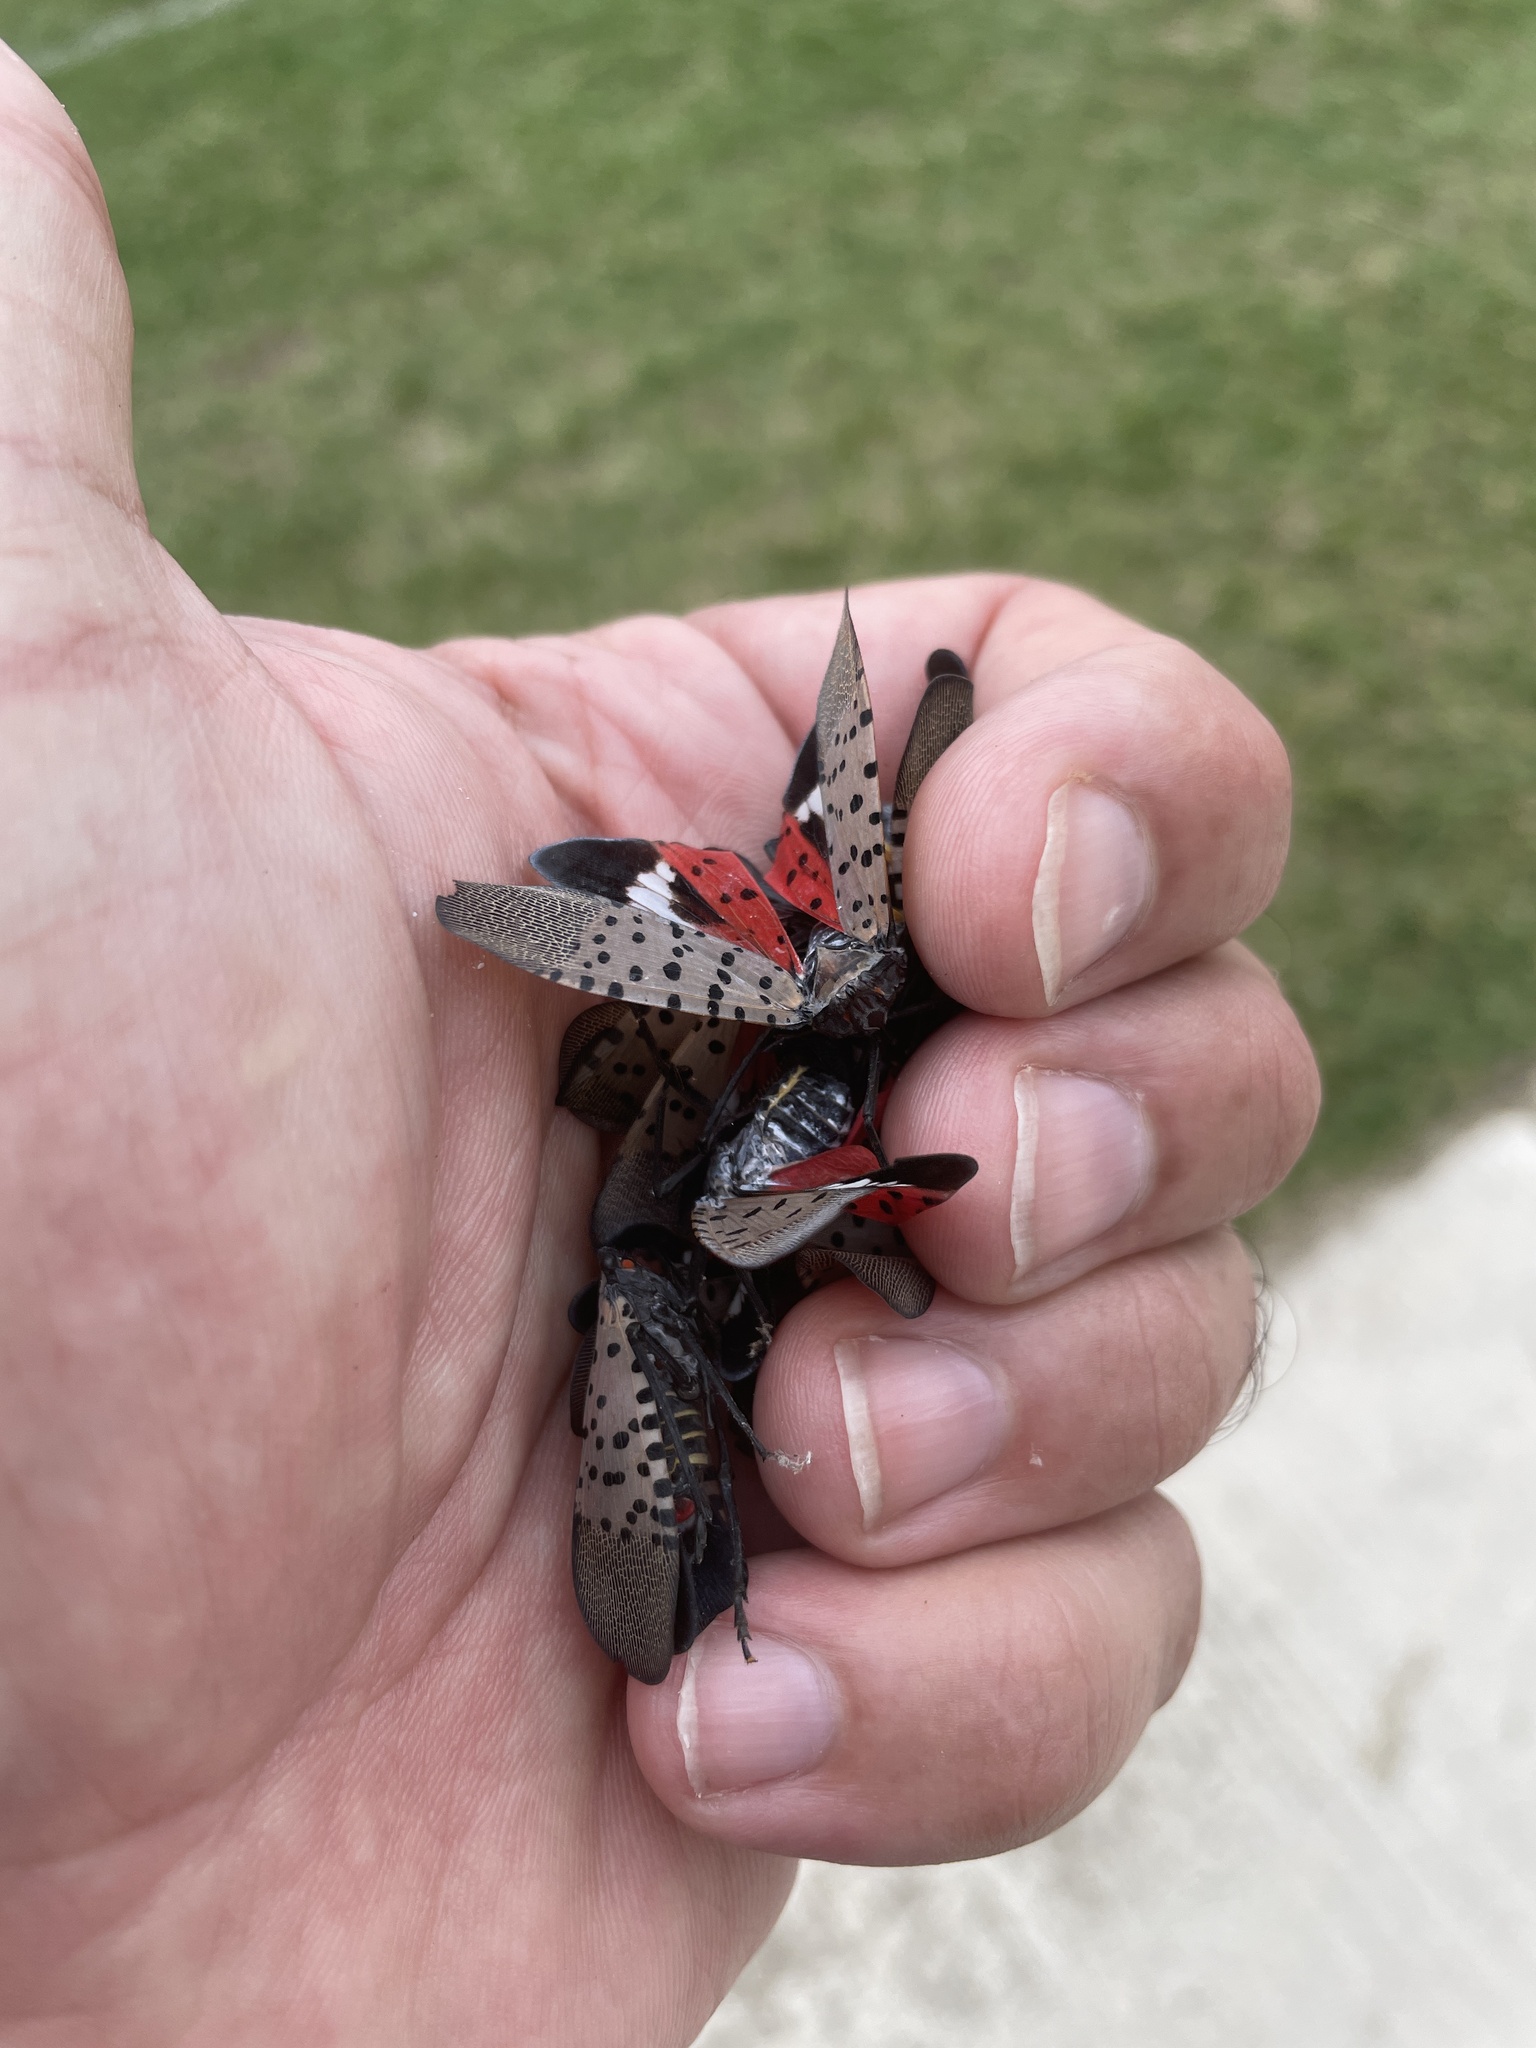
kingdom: Animalia
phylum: Arthropoda
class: Insecta
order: Hemiptera
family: Fulgoridae
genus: Lycorma
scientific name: Lycorma delicatula
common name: Spotted lanternfly
